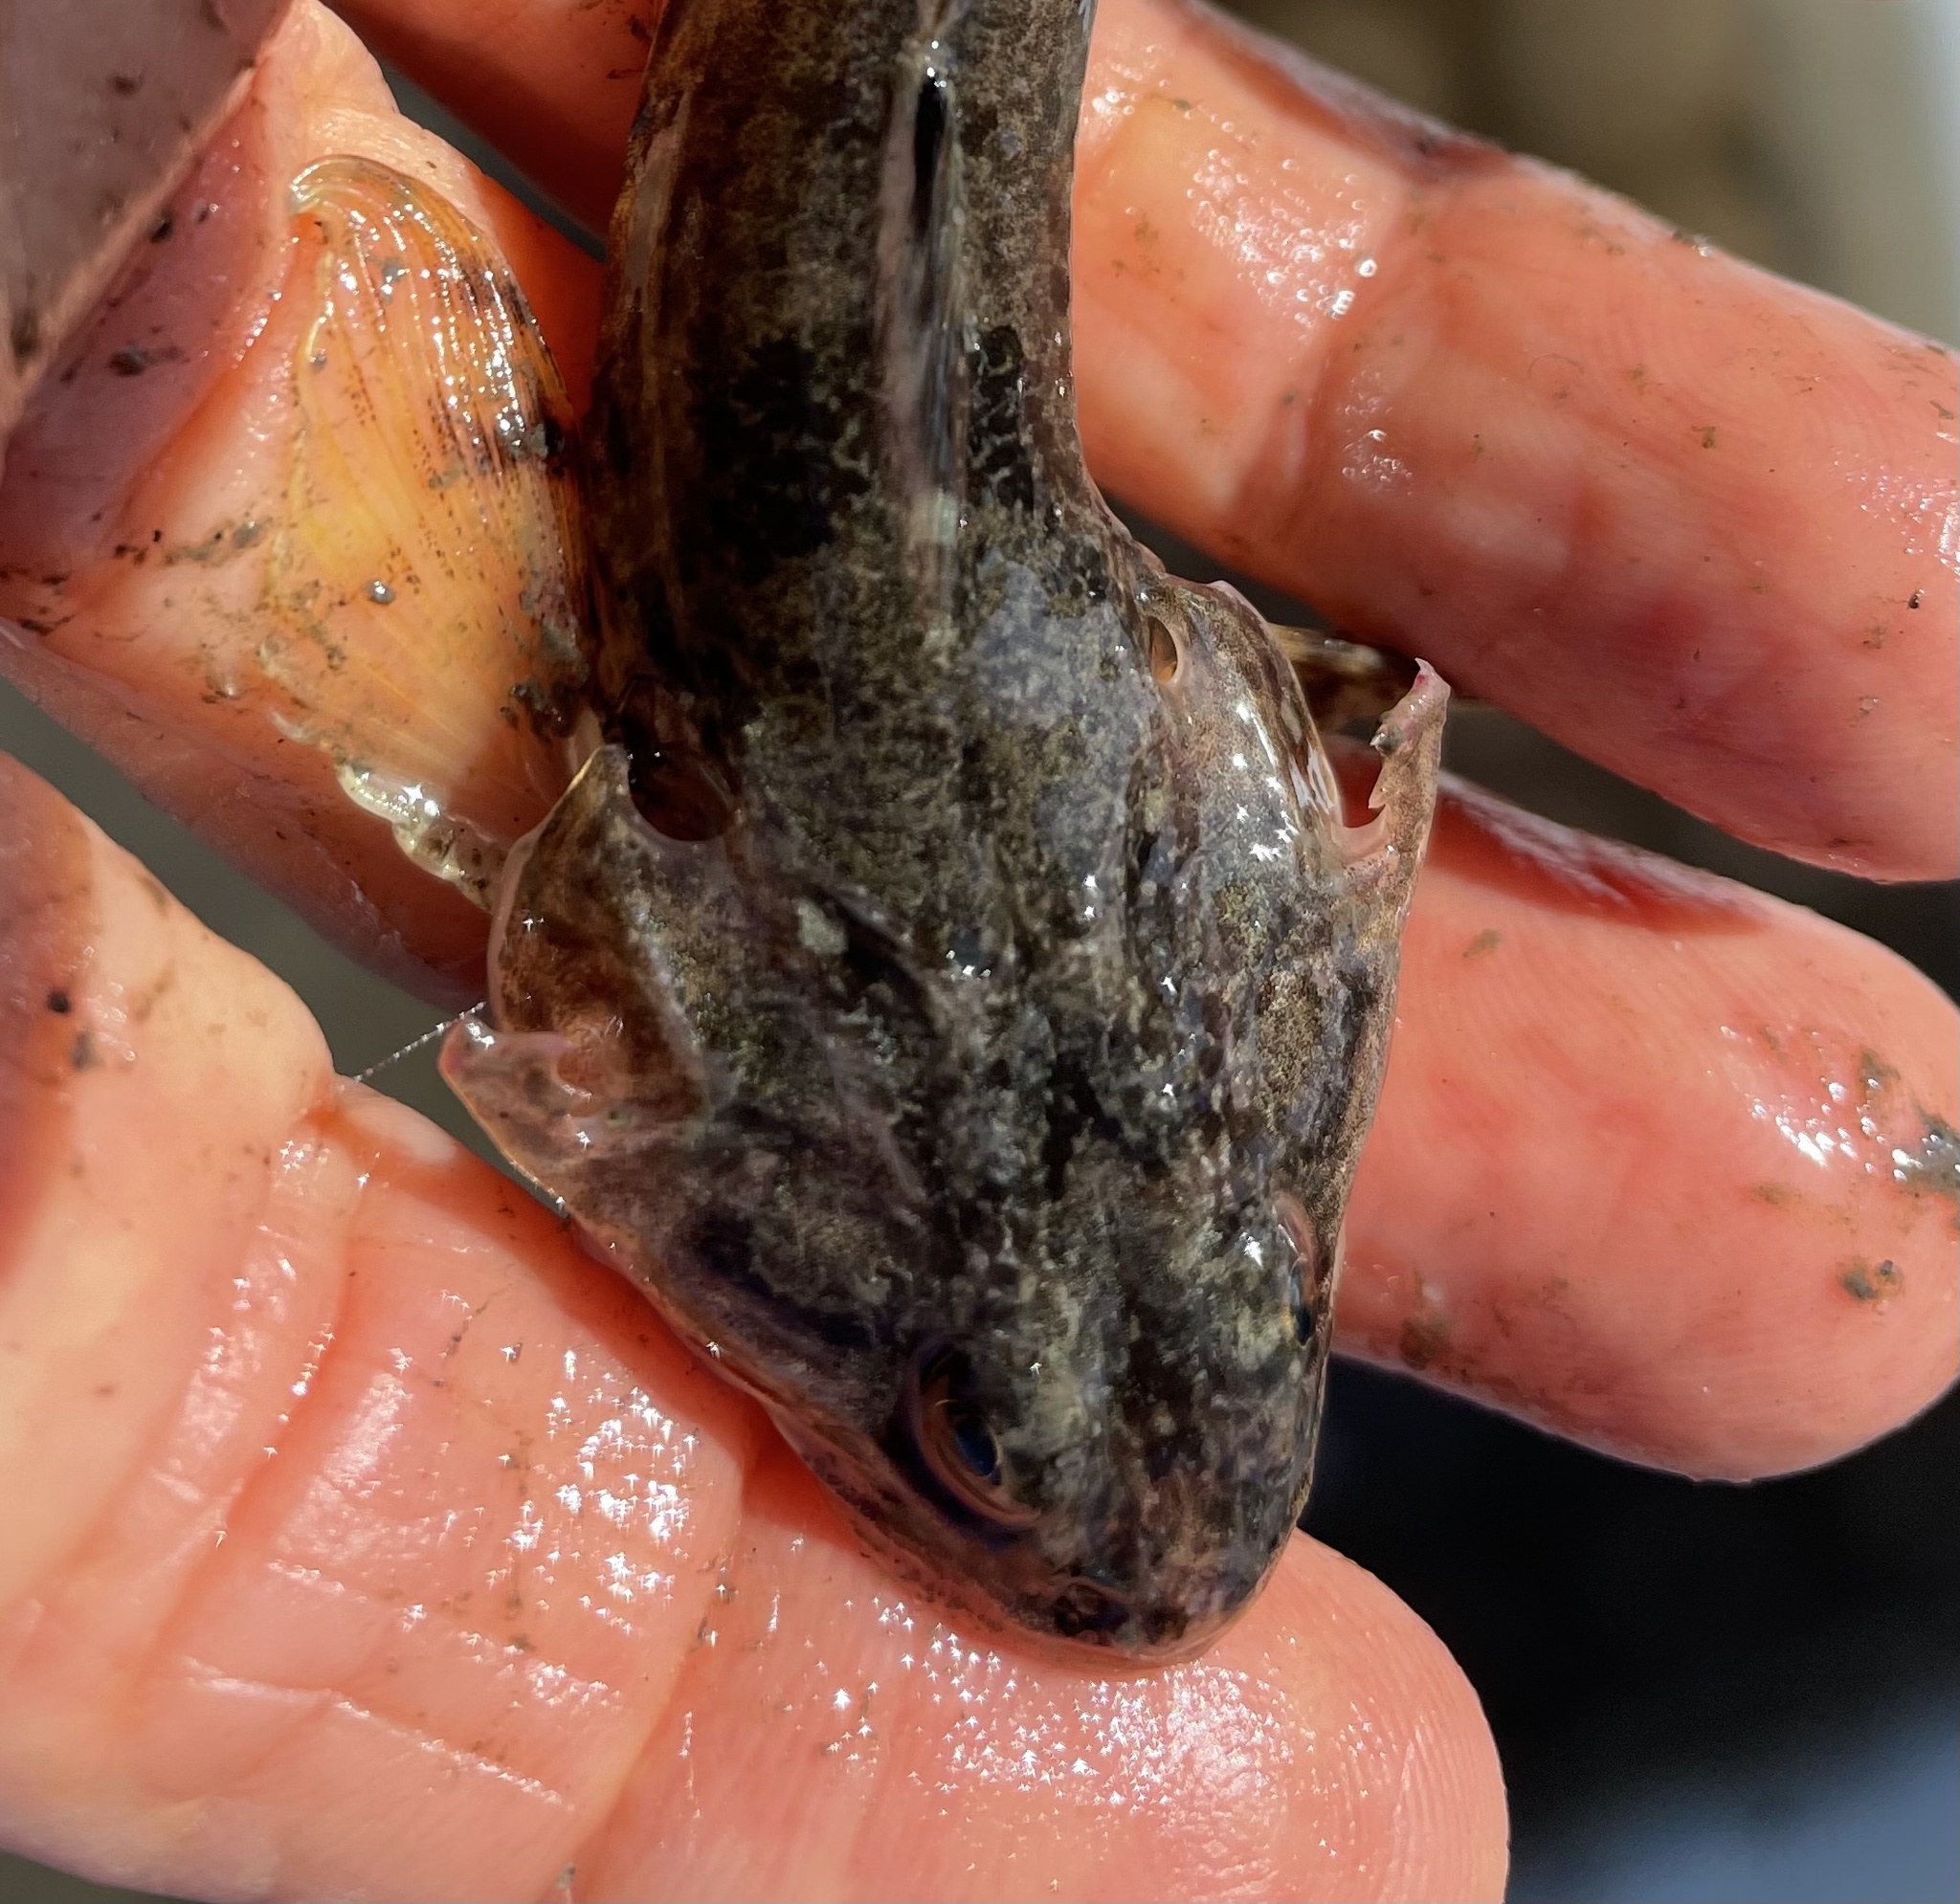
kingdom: Animalia
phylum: Chordata
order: Scorpaeniformes
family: Cottidae
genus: Leptocottus
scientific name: Leptocottus armatus
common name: Pacific staghorn sculpin
